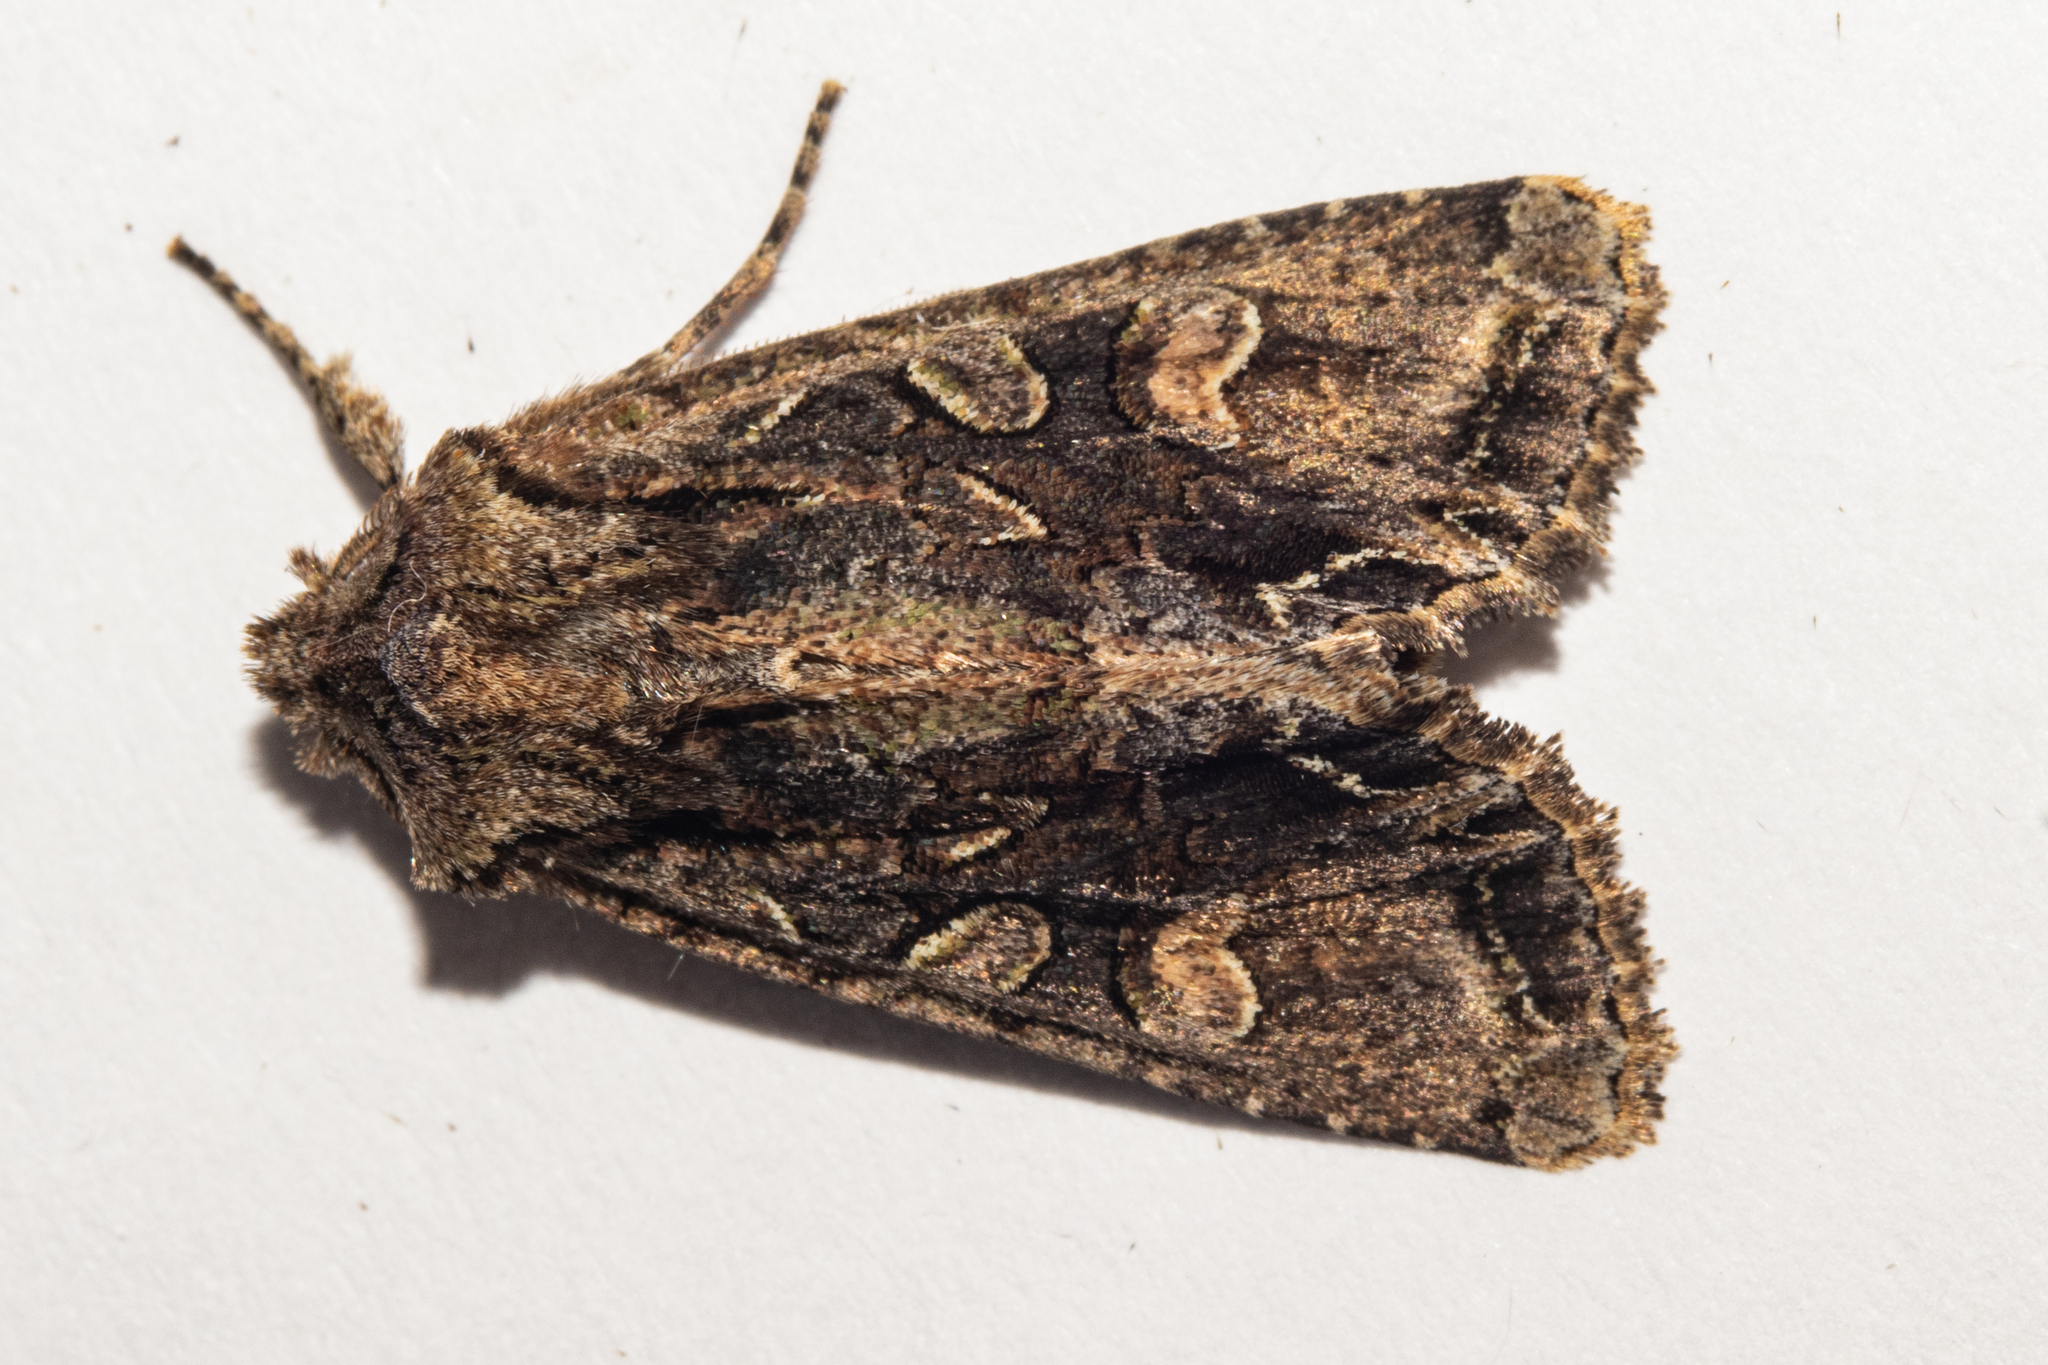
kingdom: Animalia
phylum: Arthropoda
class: Insecta
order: Lepidoptera
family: Noctuidae
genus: Ichneutica
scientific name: Ichneutica
